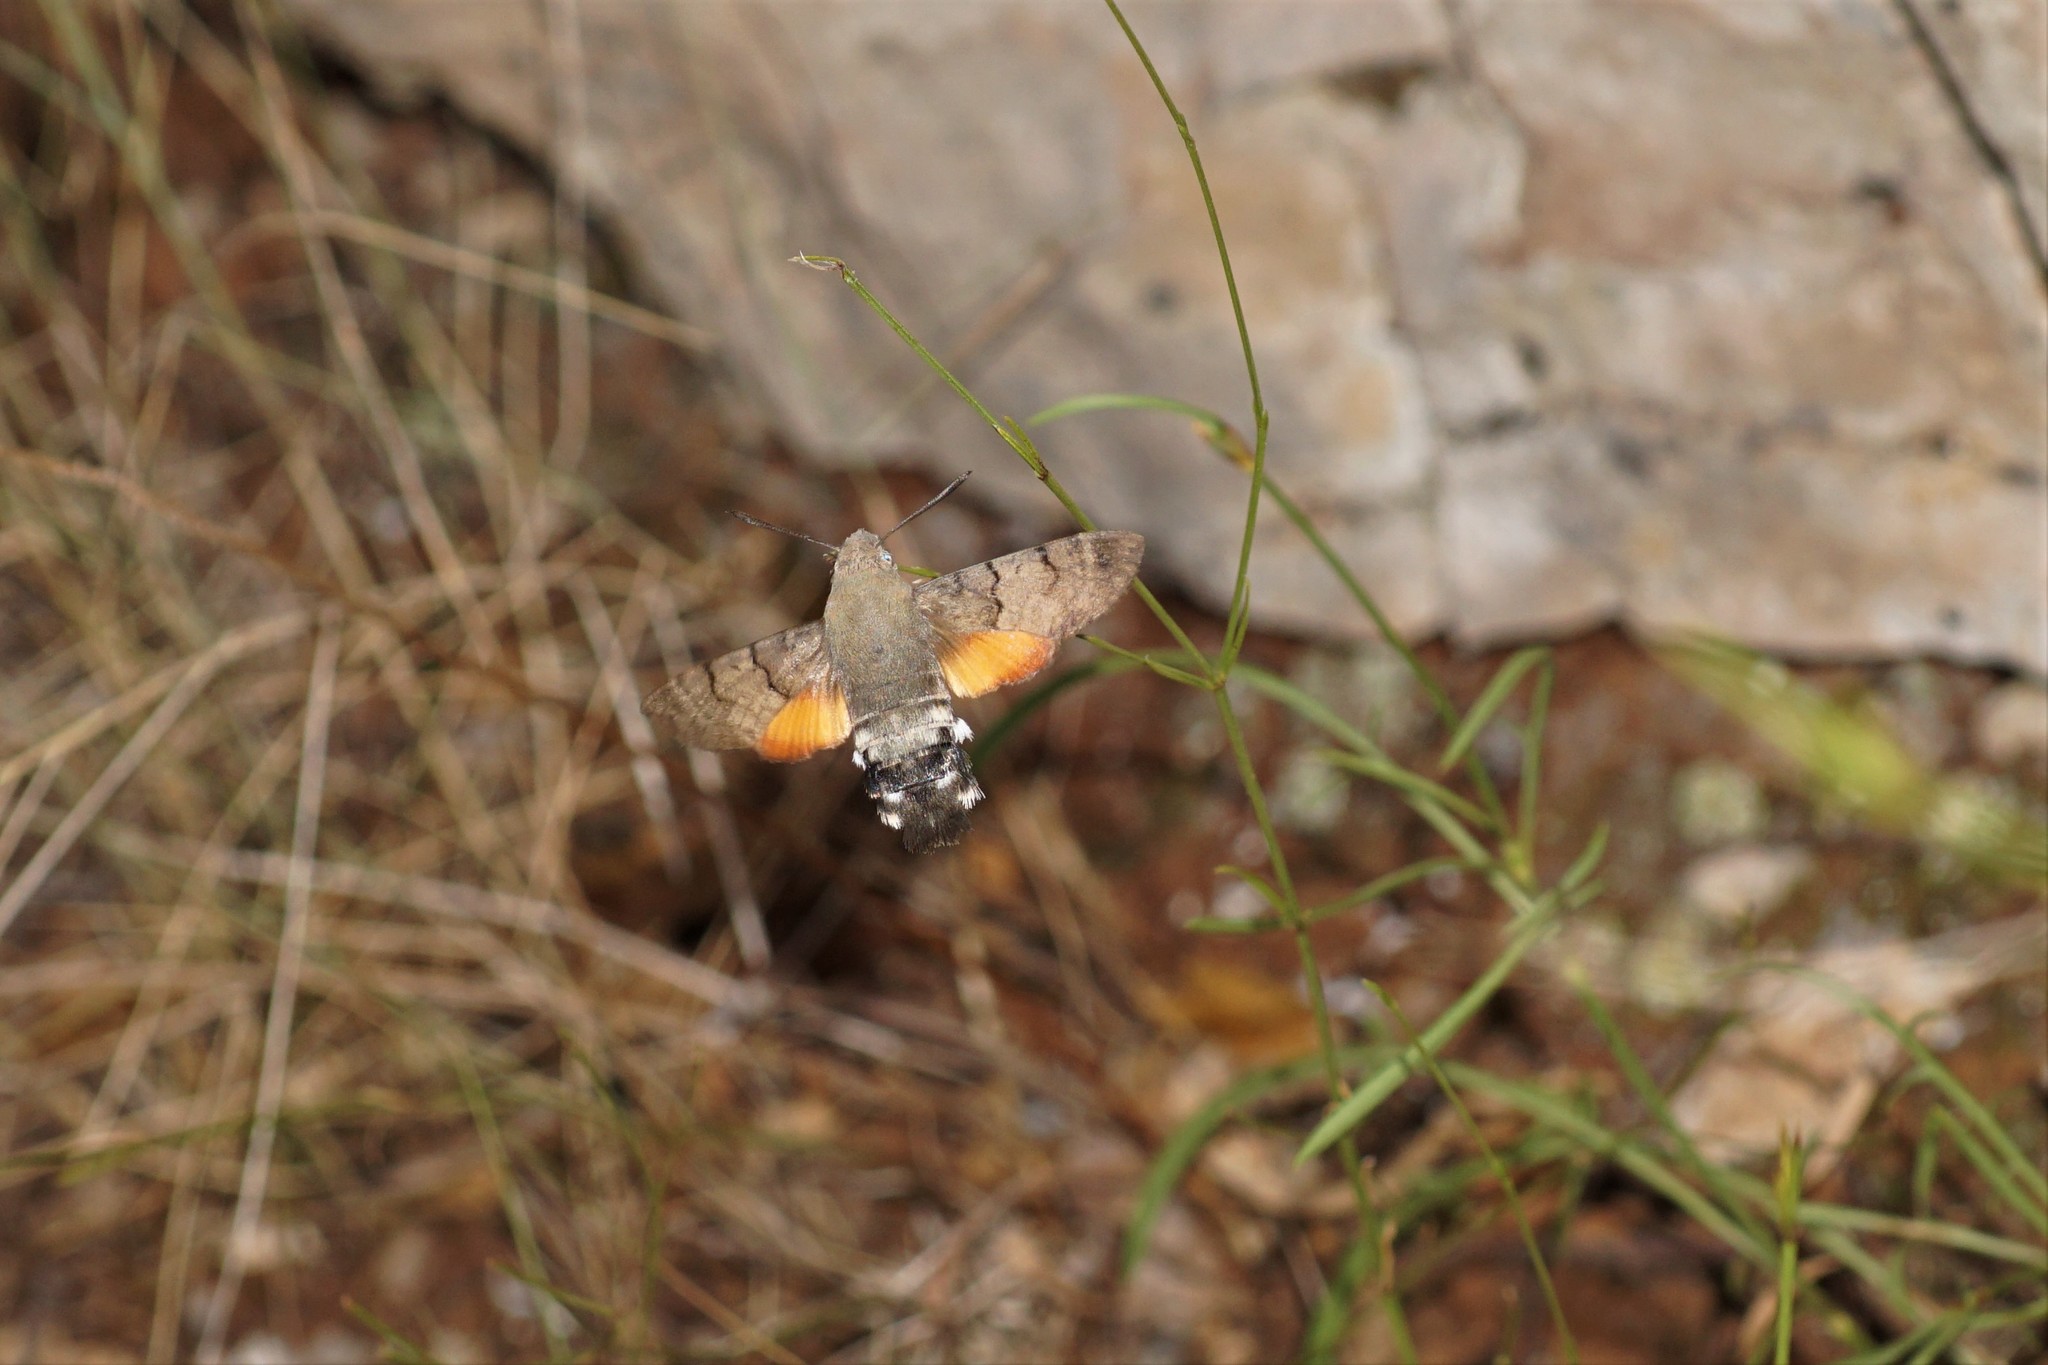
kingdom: Animalia
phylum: Arthropoda
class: Insecta
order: Lepidoptera
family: Sphingidae
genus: Macroglossum
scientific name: Macroglossum stellatarum
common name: Humming-bird hawk-moth
